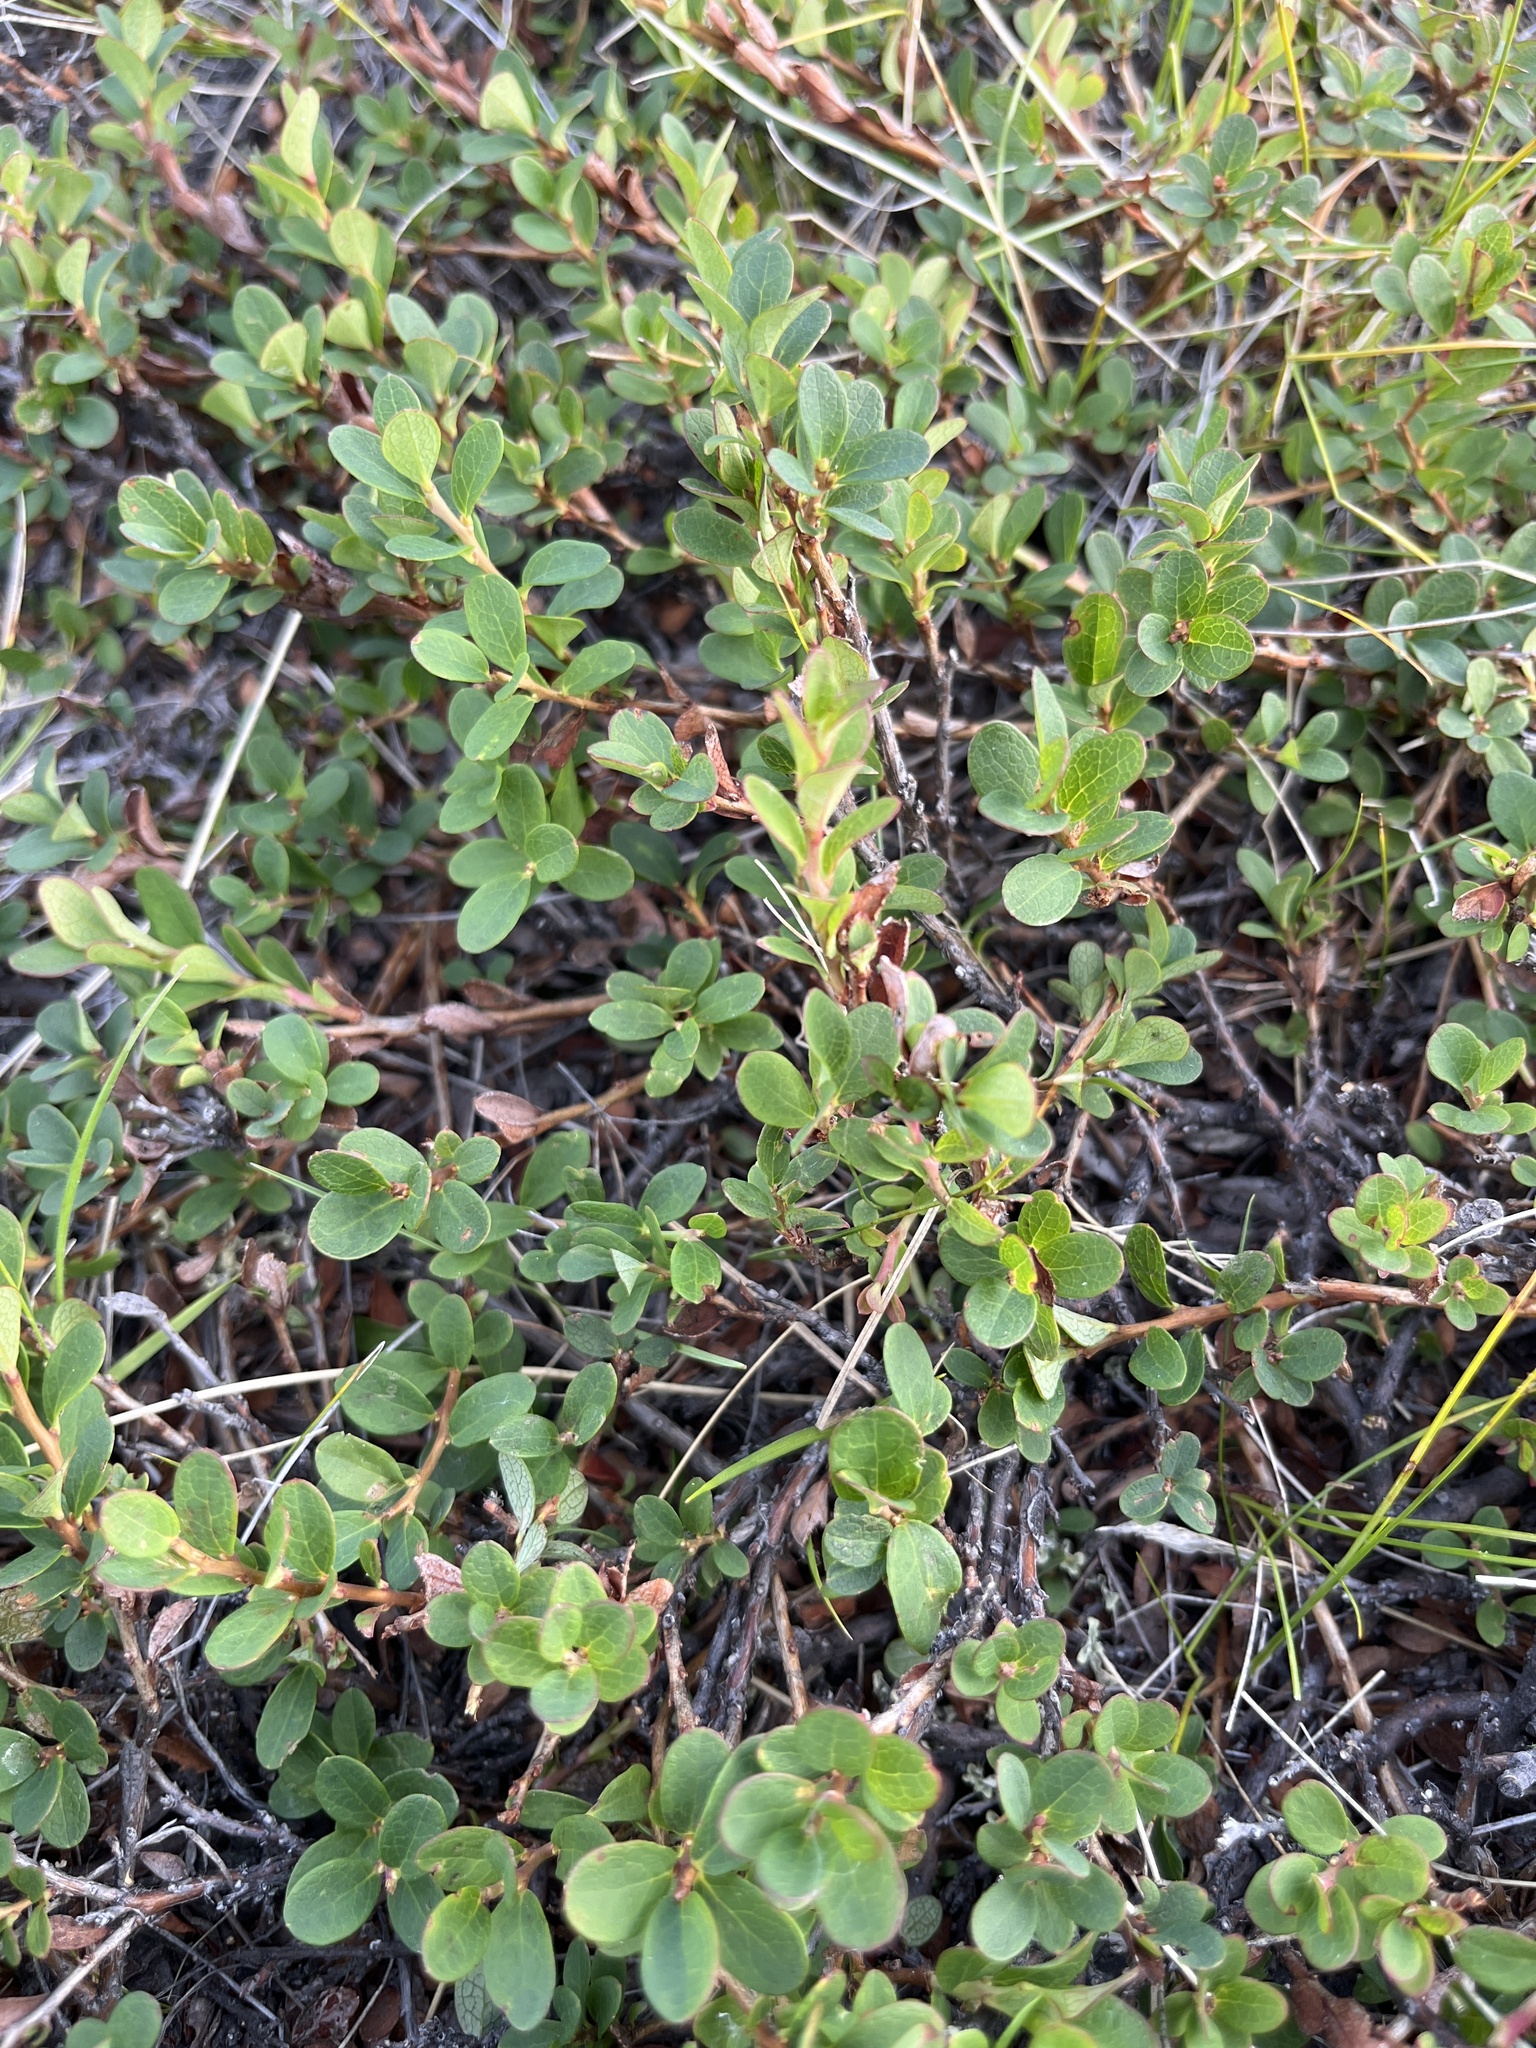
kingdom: Plantae
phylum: Tracheophyta
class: Magnoliopsida
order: Ericales
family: Ericaceae
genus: Vaccinium
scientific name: Vaccinium uliginosum
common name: Bog bilberry
